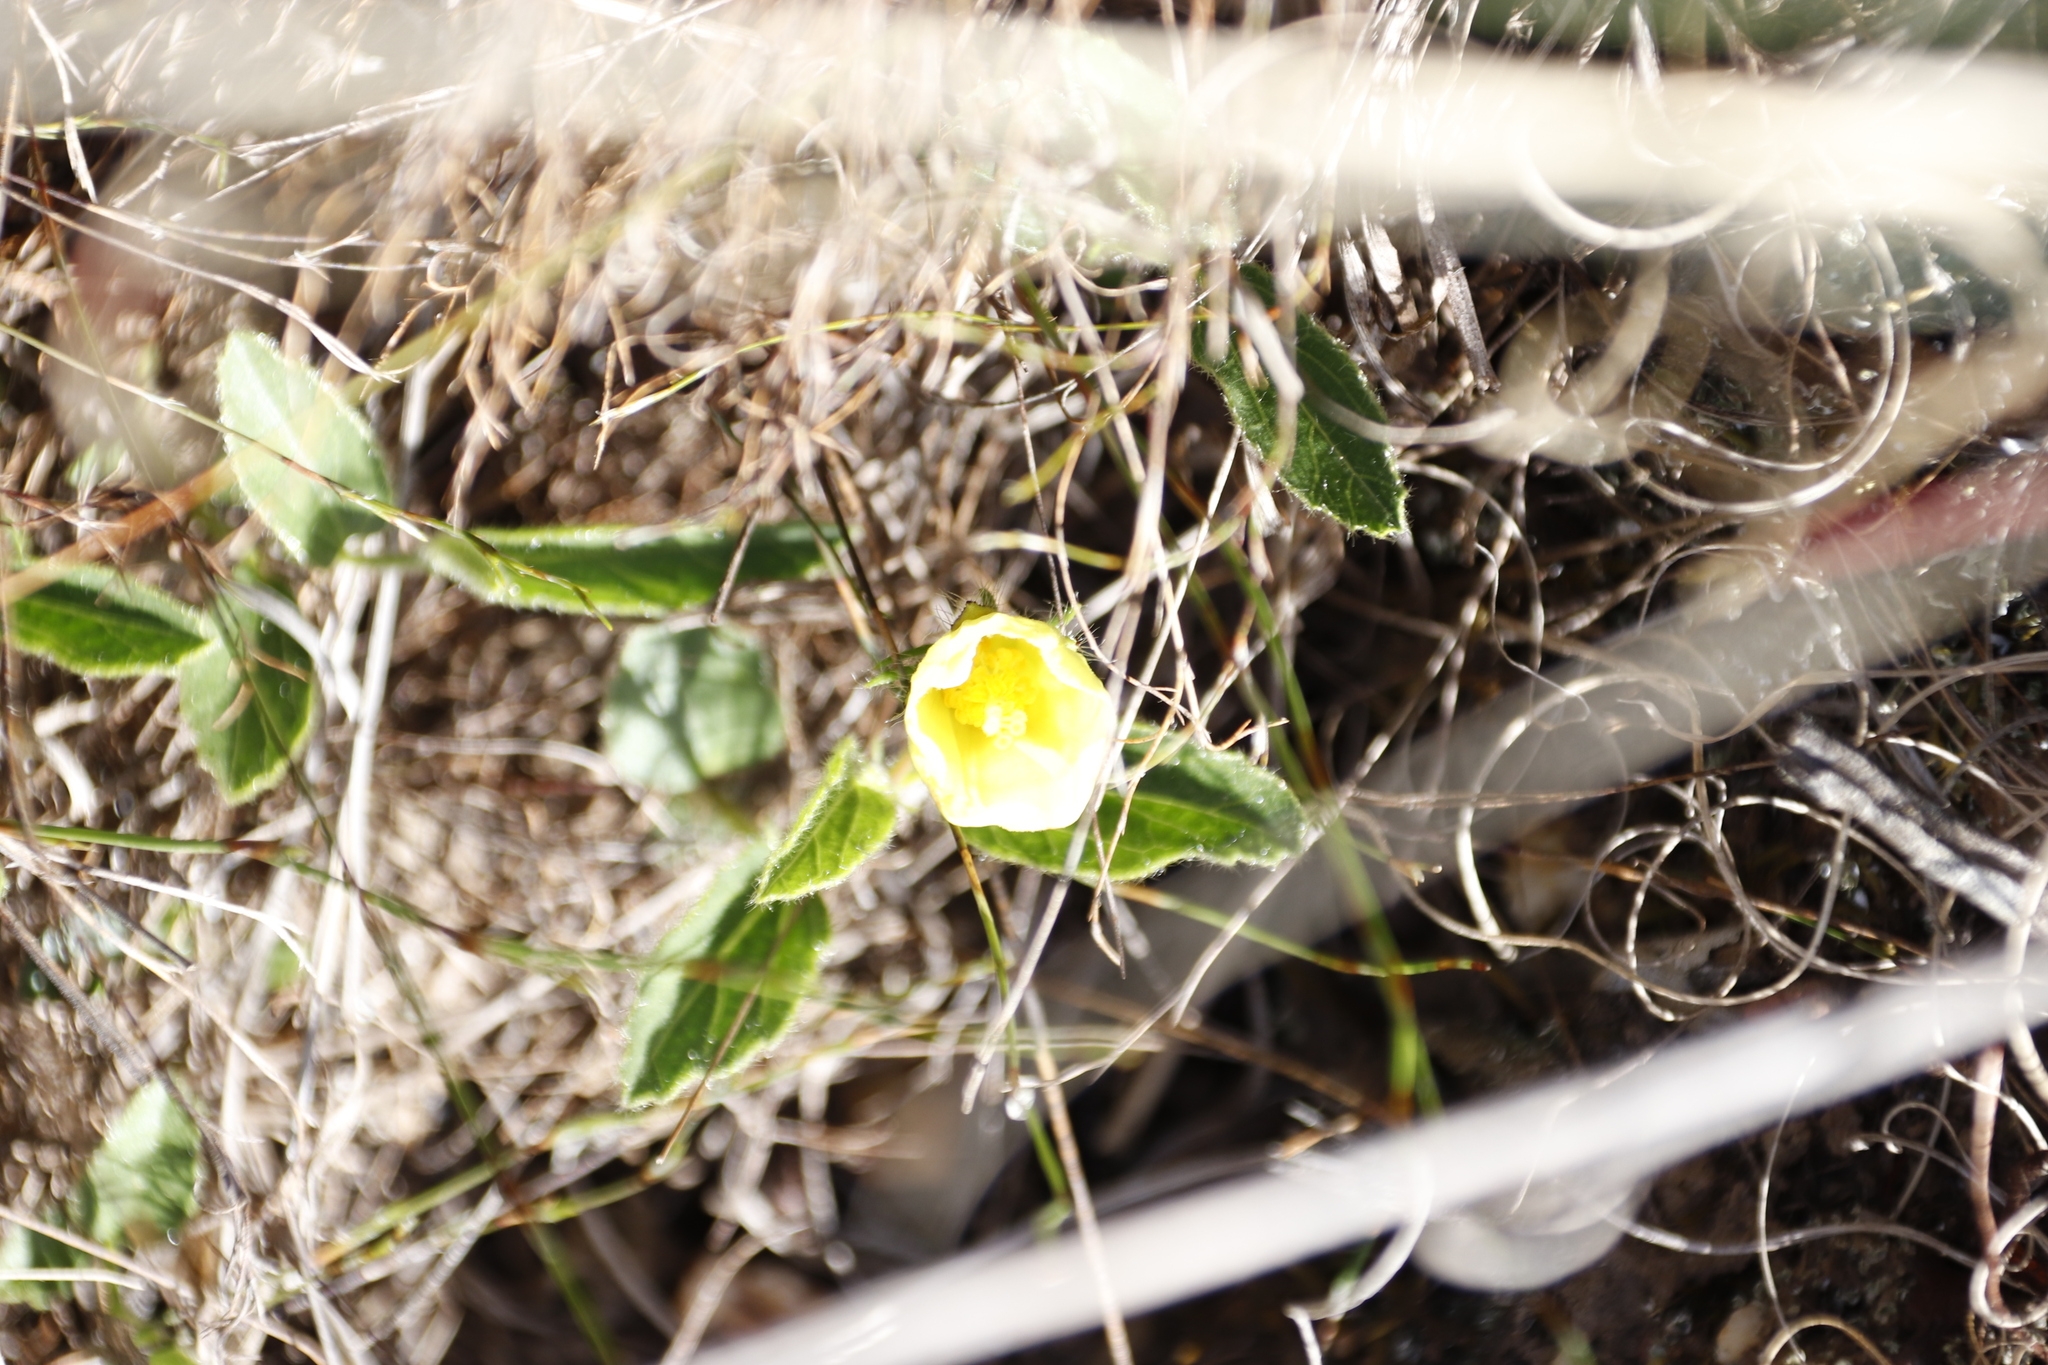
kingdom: Plantae
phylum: Tracheophyta
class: Magnoliopsida
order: Malvales
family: Malvaceae
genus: Hibiscus
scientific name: Hibiscus aethiopicus
